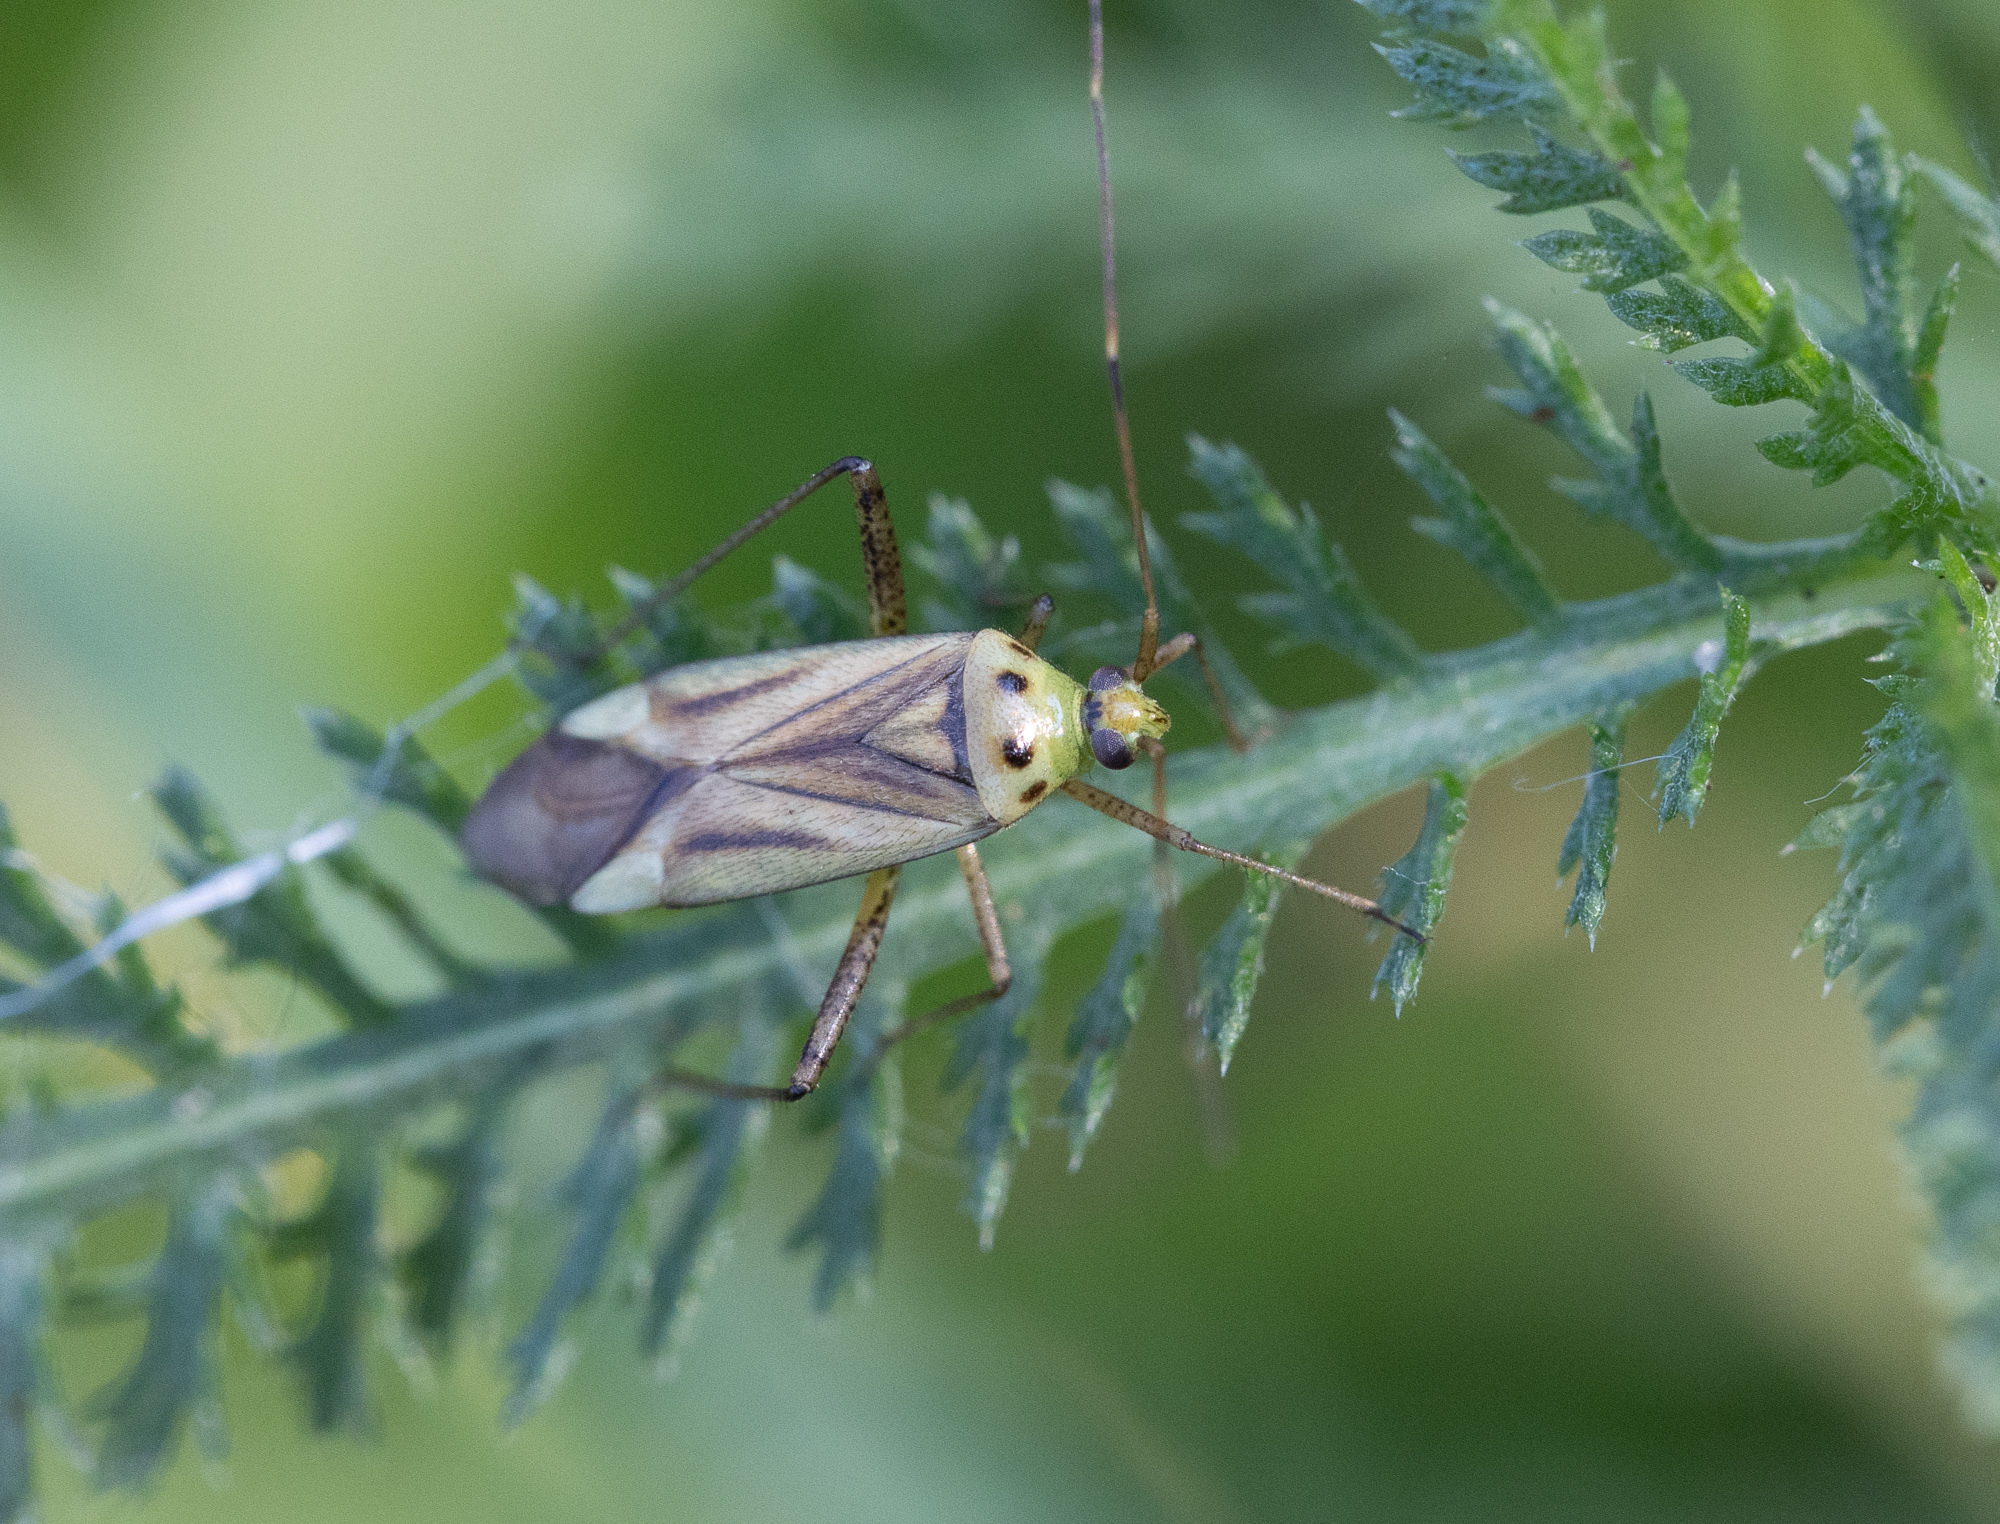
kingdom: Animalia
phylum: Arthropoda
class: Insecta
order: Hemiptera
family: Miridae
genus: Adelphocoris
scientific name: Adelphocoris quadripunctatus
